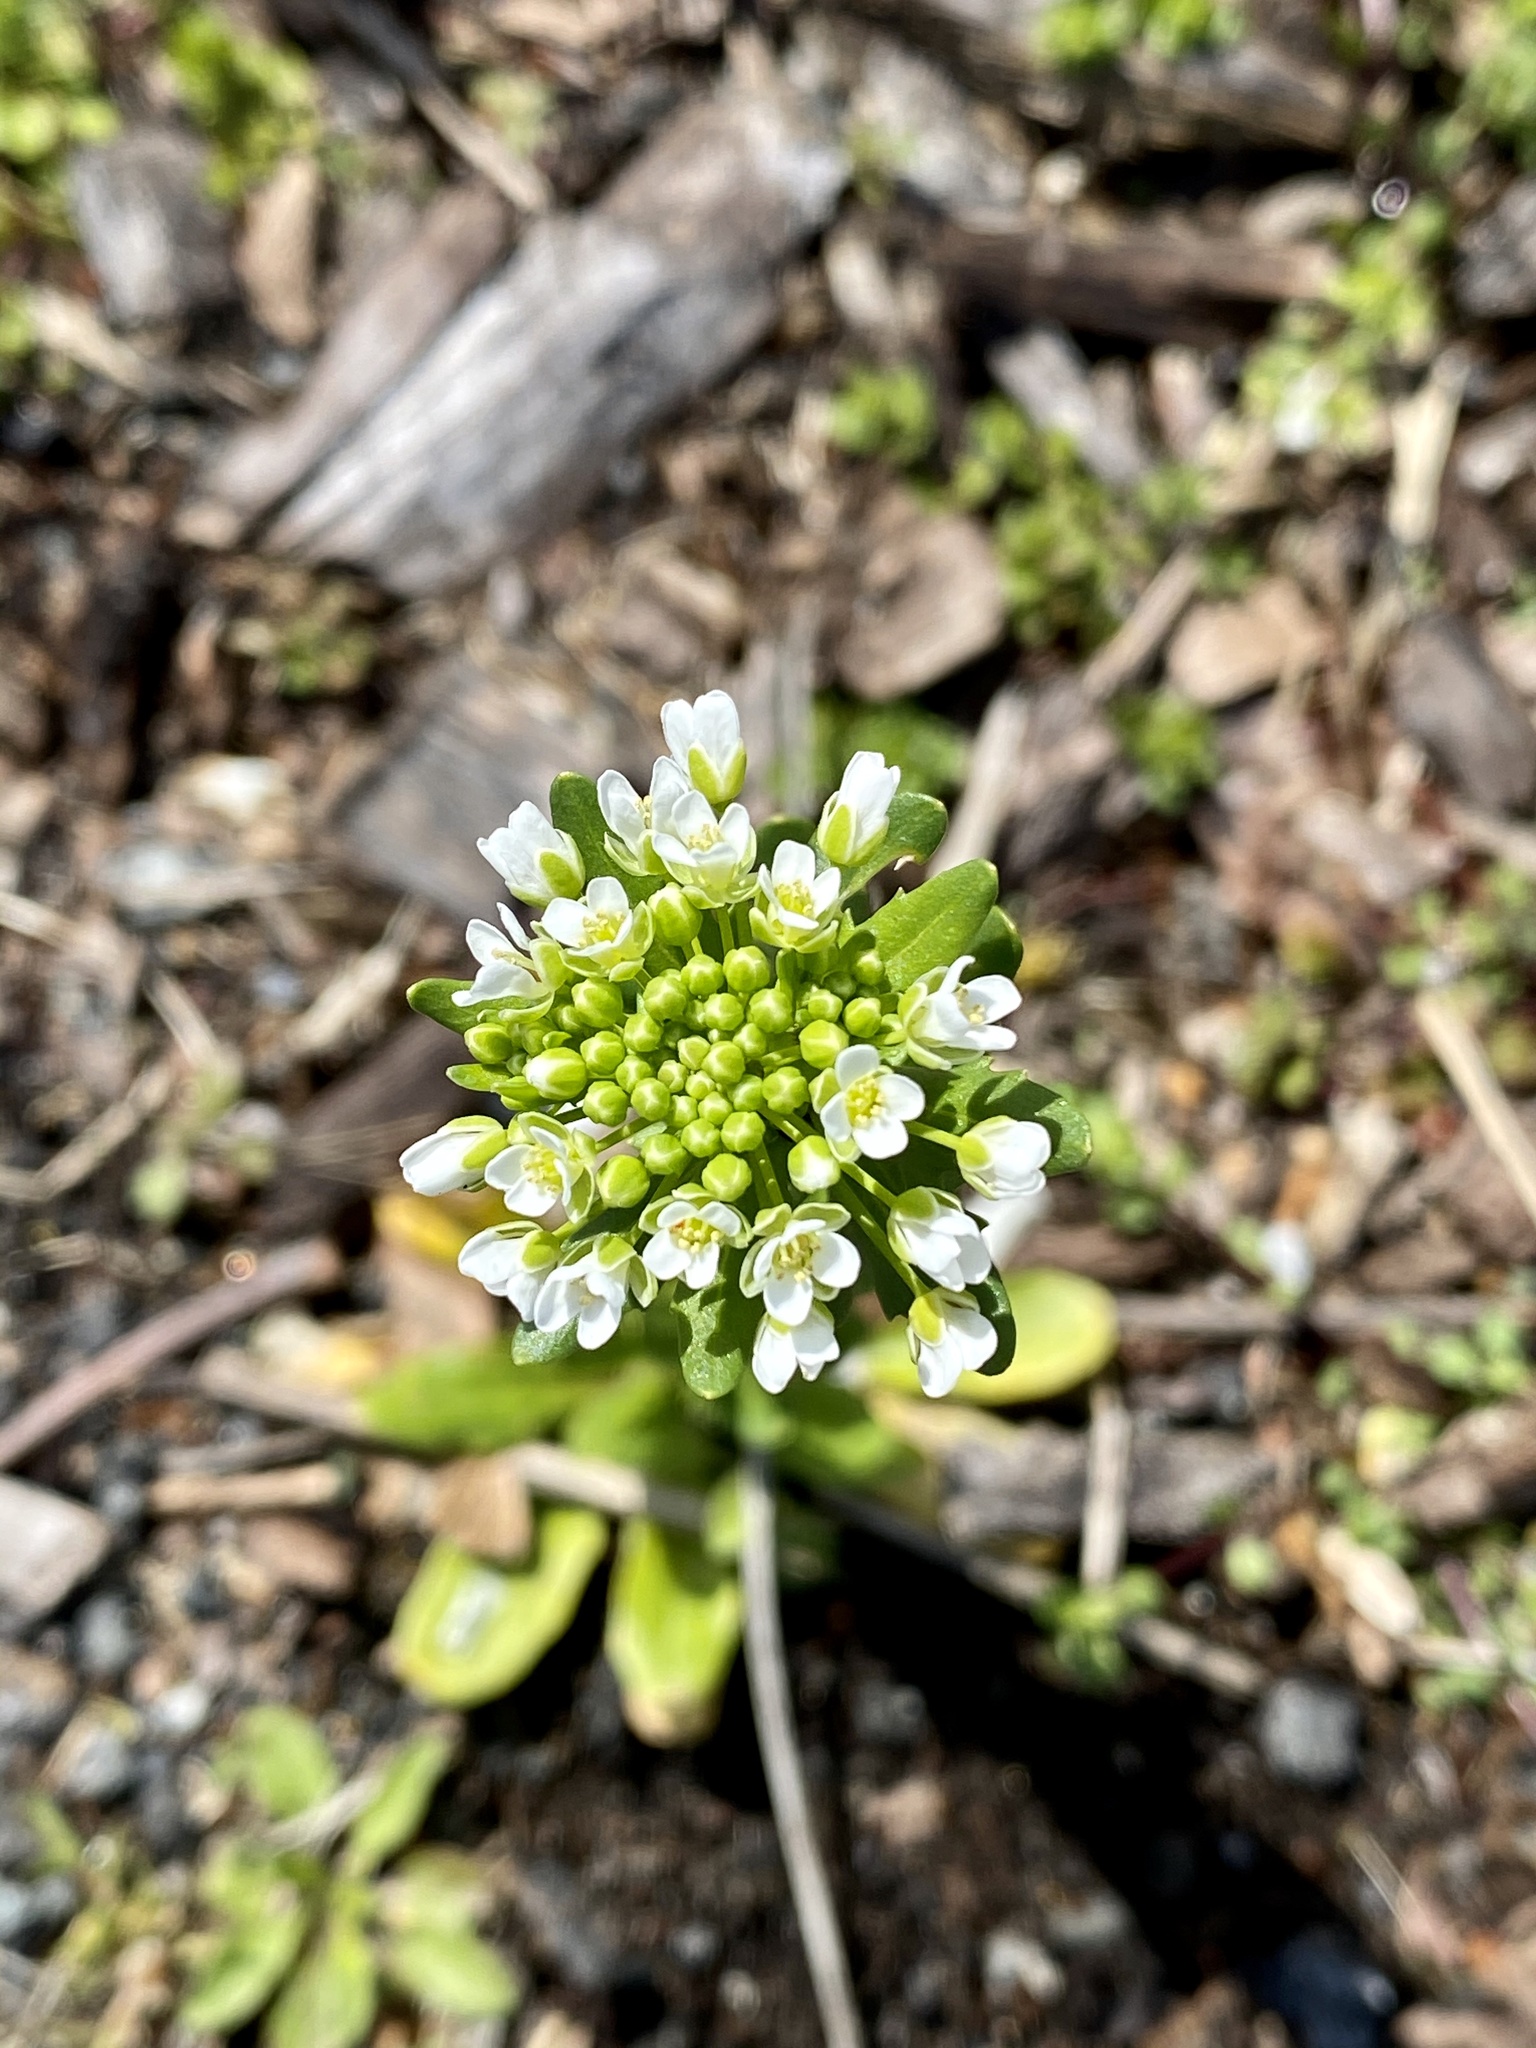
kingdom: Plantae
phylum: Tracheophyta
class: Magnoliopsida
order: Brassicales
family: Brassicaceae
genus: Thlaspi
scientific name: Thlaspi arvense
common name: Field pennycress
